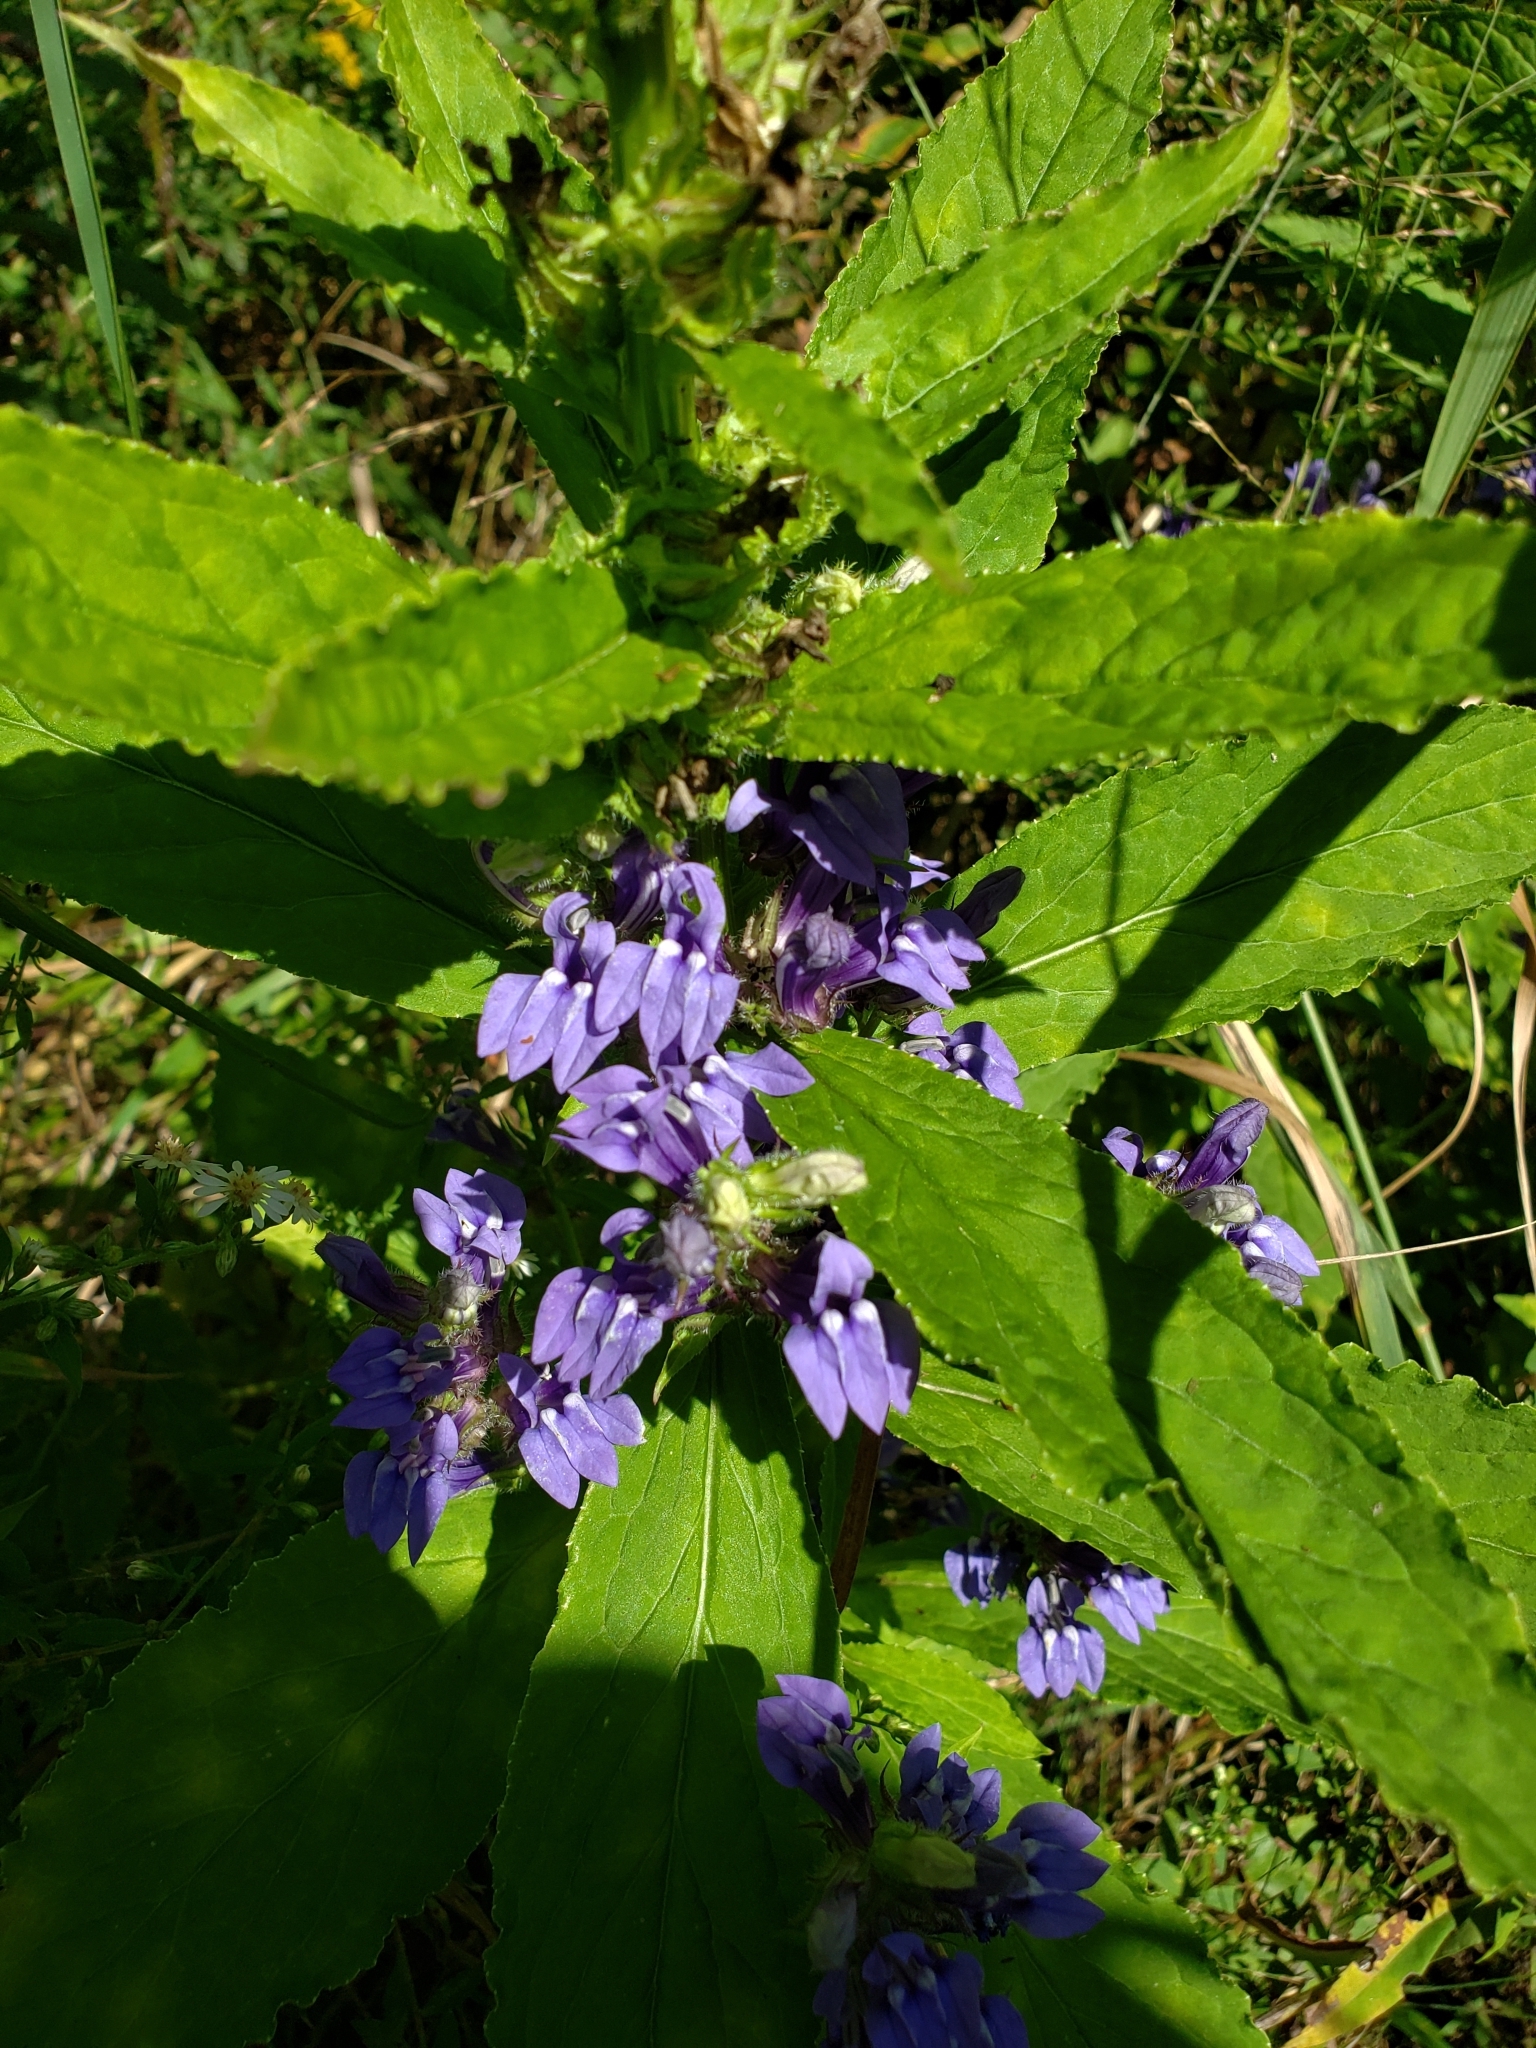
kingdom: Plantae
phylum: Tracheophyta
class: Magnoliopsida
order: Asterales
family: Campanulaceae
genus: Lobelia
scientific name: Lobelia siphilitica
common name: Great lobelia
